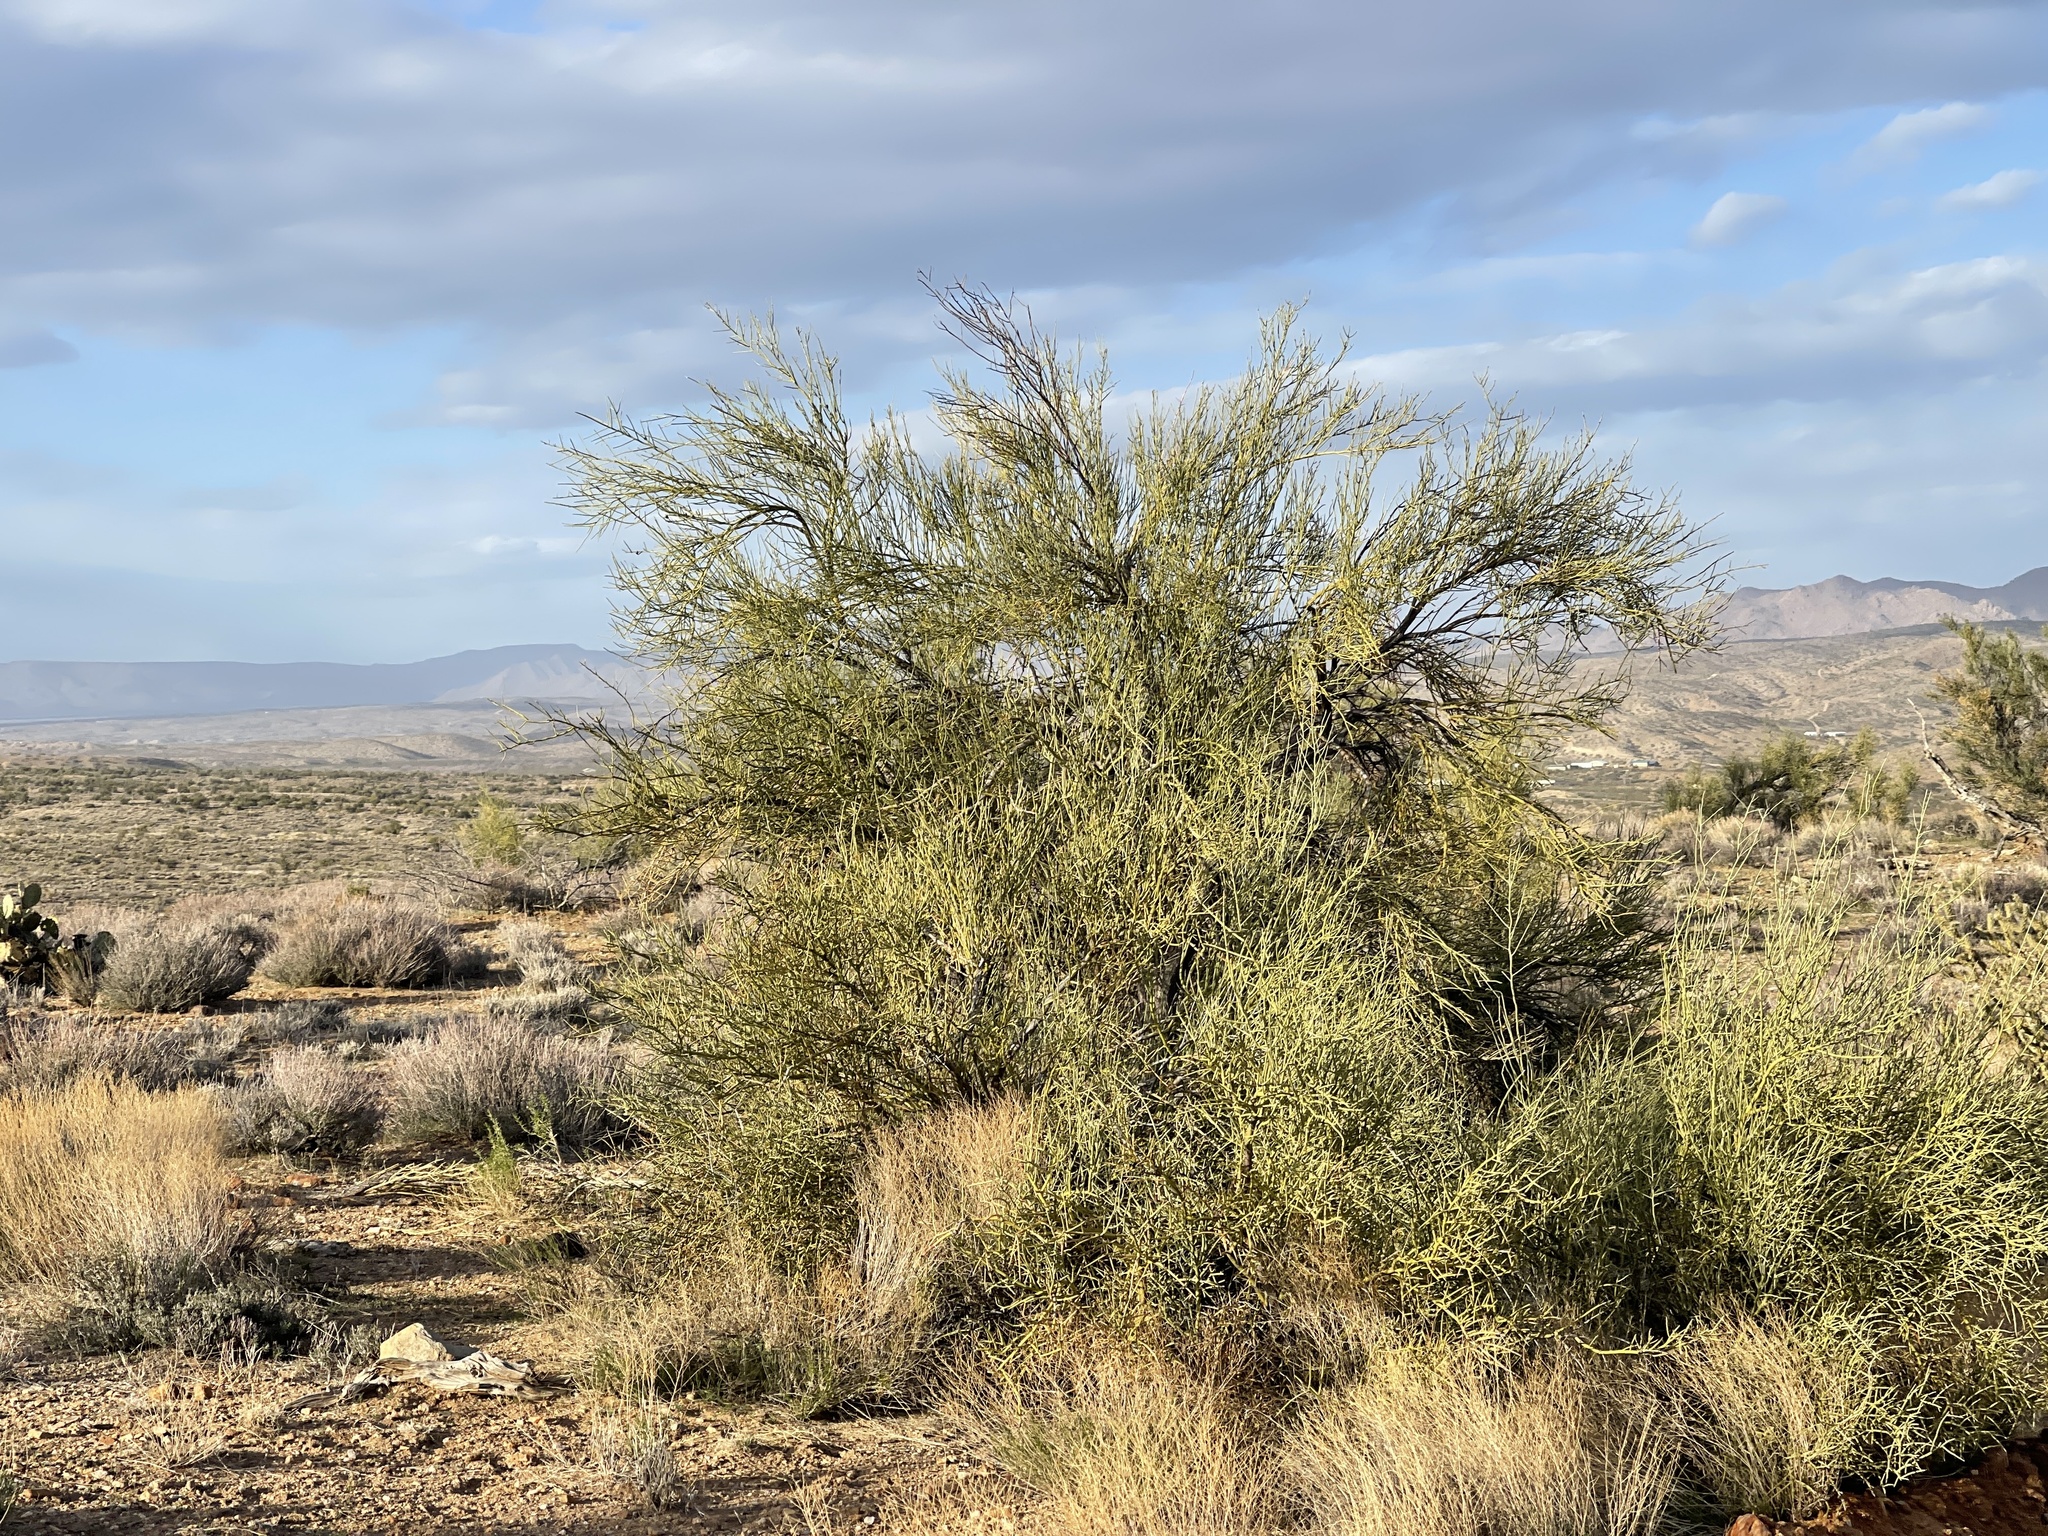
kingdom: Plantae
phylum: Tracheophyta
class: Magnoliopsida
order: Celastrales
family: Celastraceae
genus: Canotia
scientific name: Canotia holacantha
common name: Crucifixion thorns
